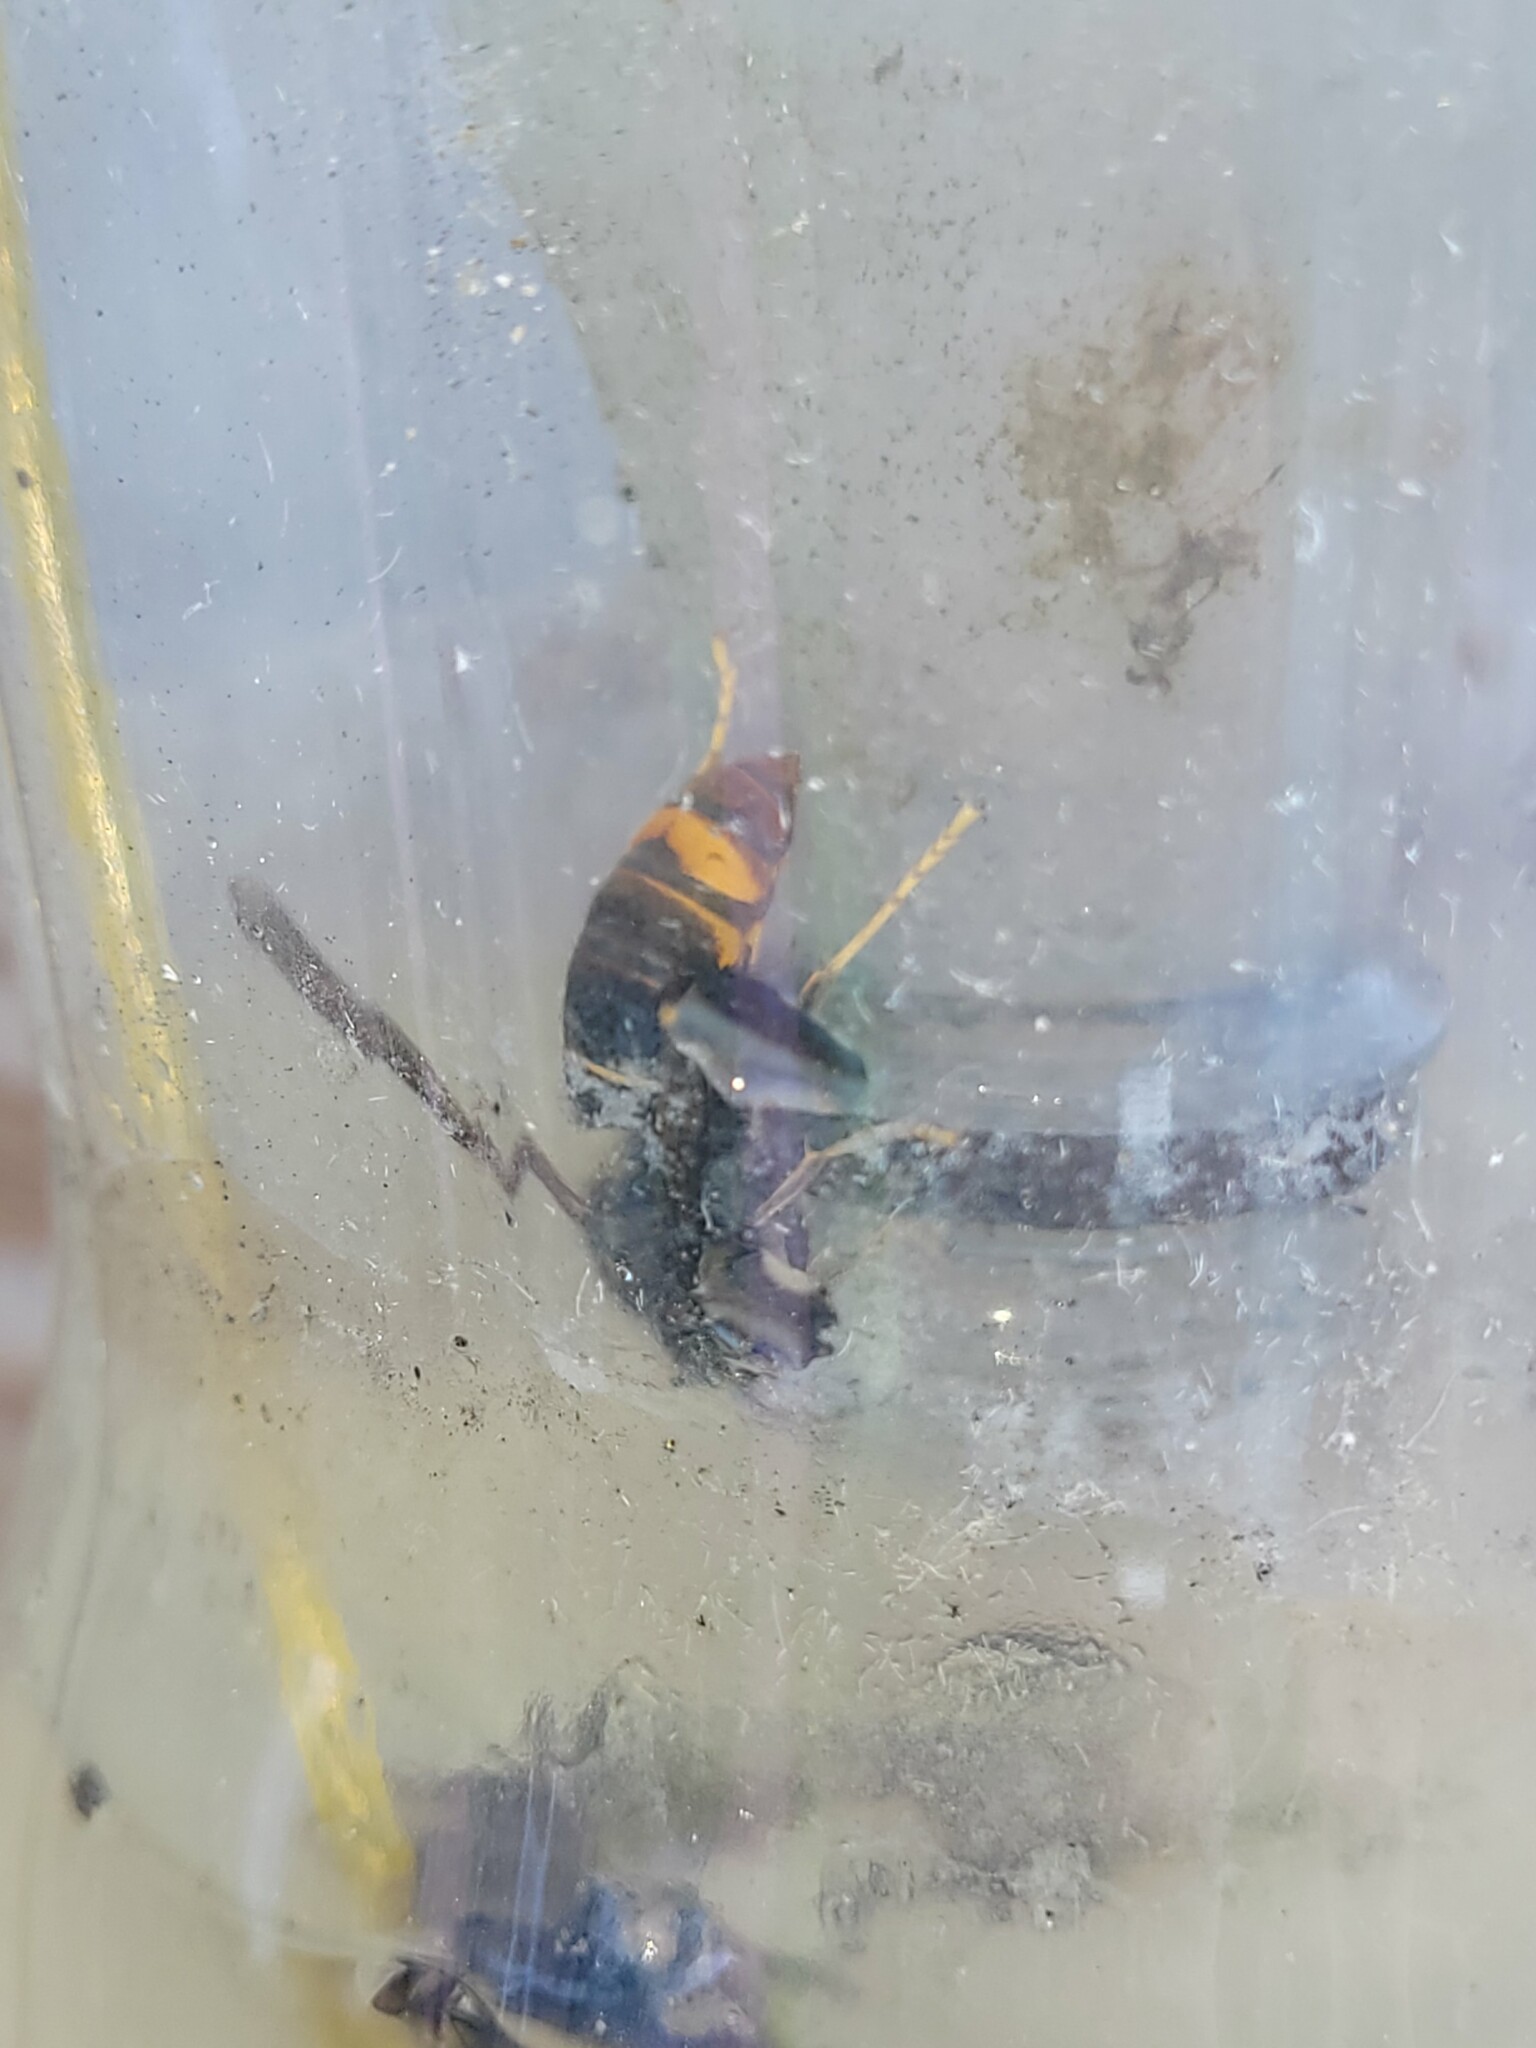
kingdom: Animalia
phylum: Arthropoda
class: Insecta
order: Hymenoptera
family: Vespidae
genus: Vespa
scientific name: Vespa velutina
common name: Asian hornet
